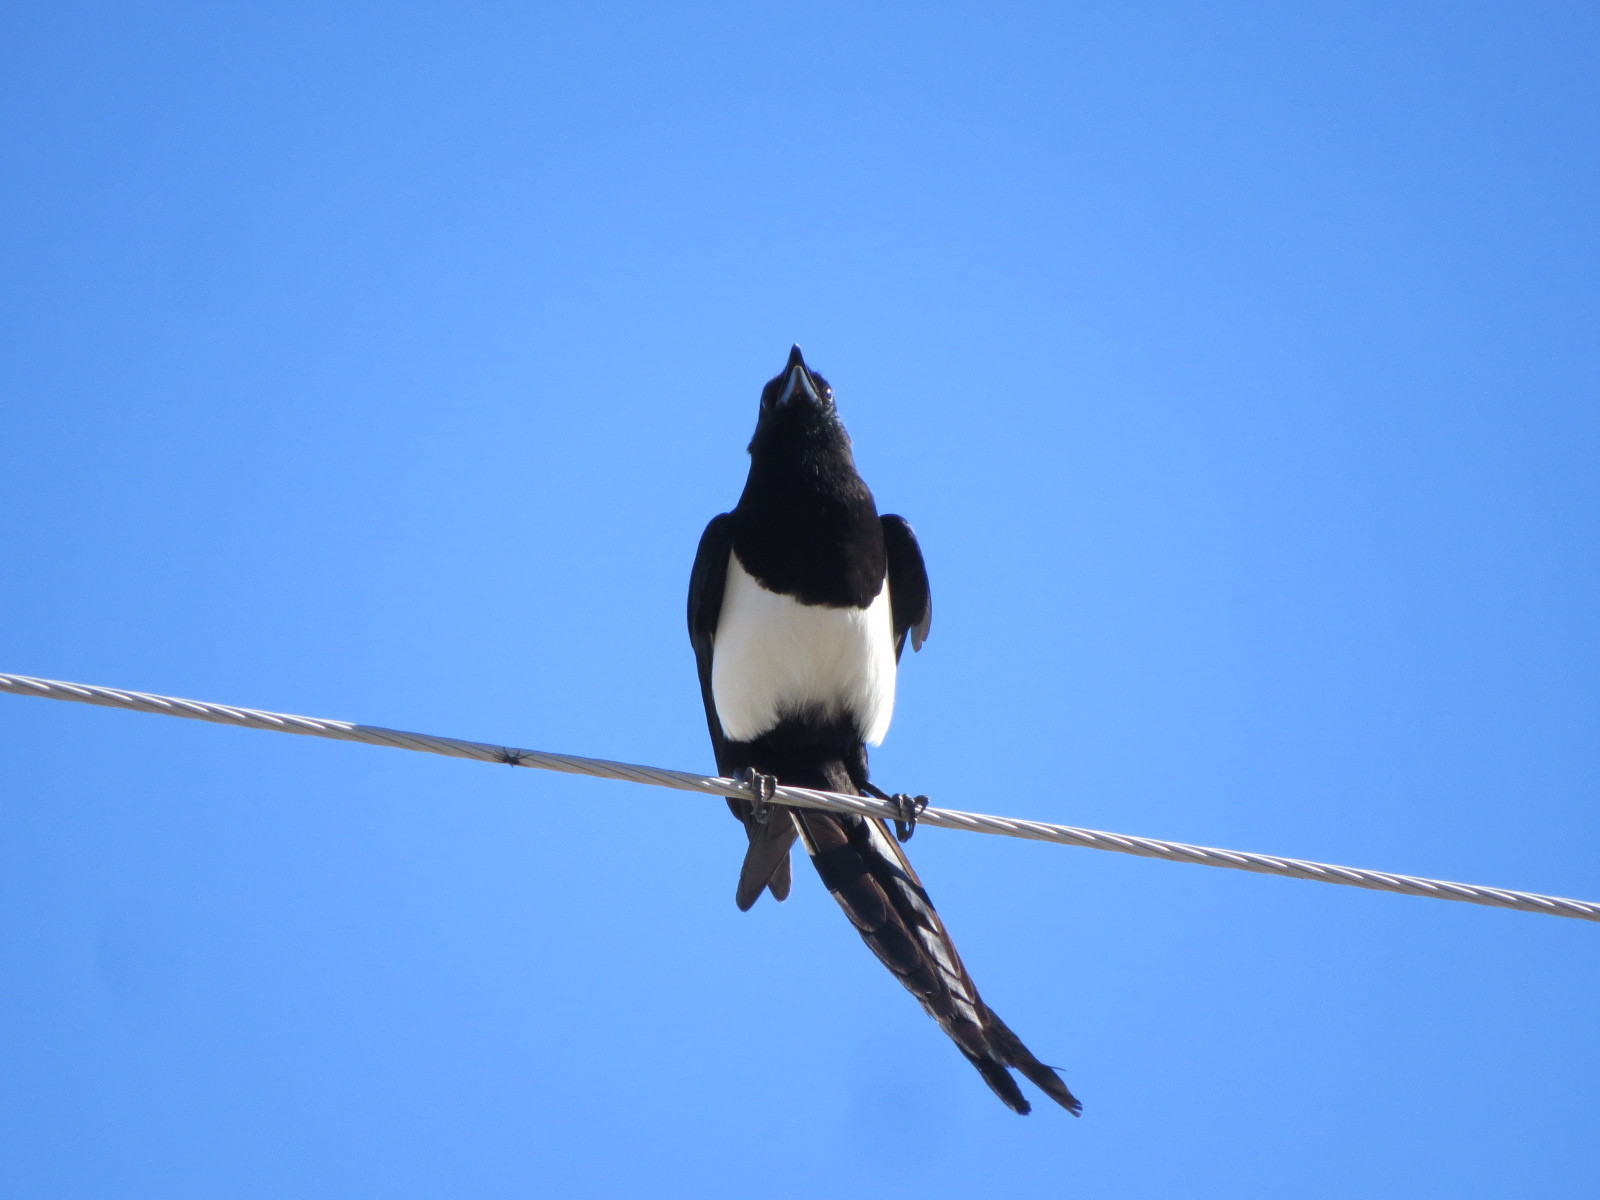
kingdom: Animalia
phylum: Chordata
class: Aves
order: Passeriformes
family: Corvidae
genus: Pica
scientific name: Pica hudsonia
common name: Black-billed magpie
